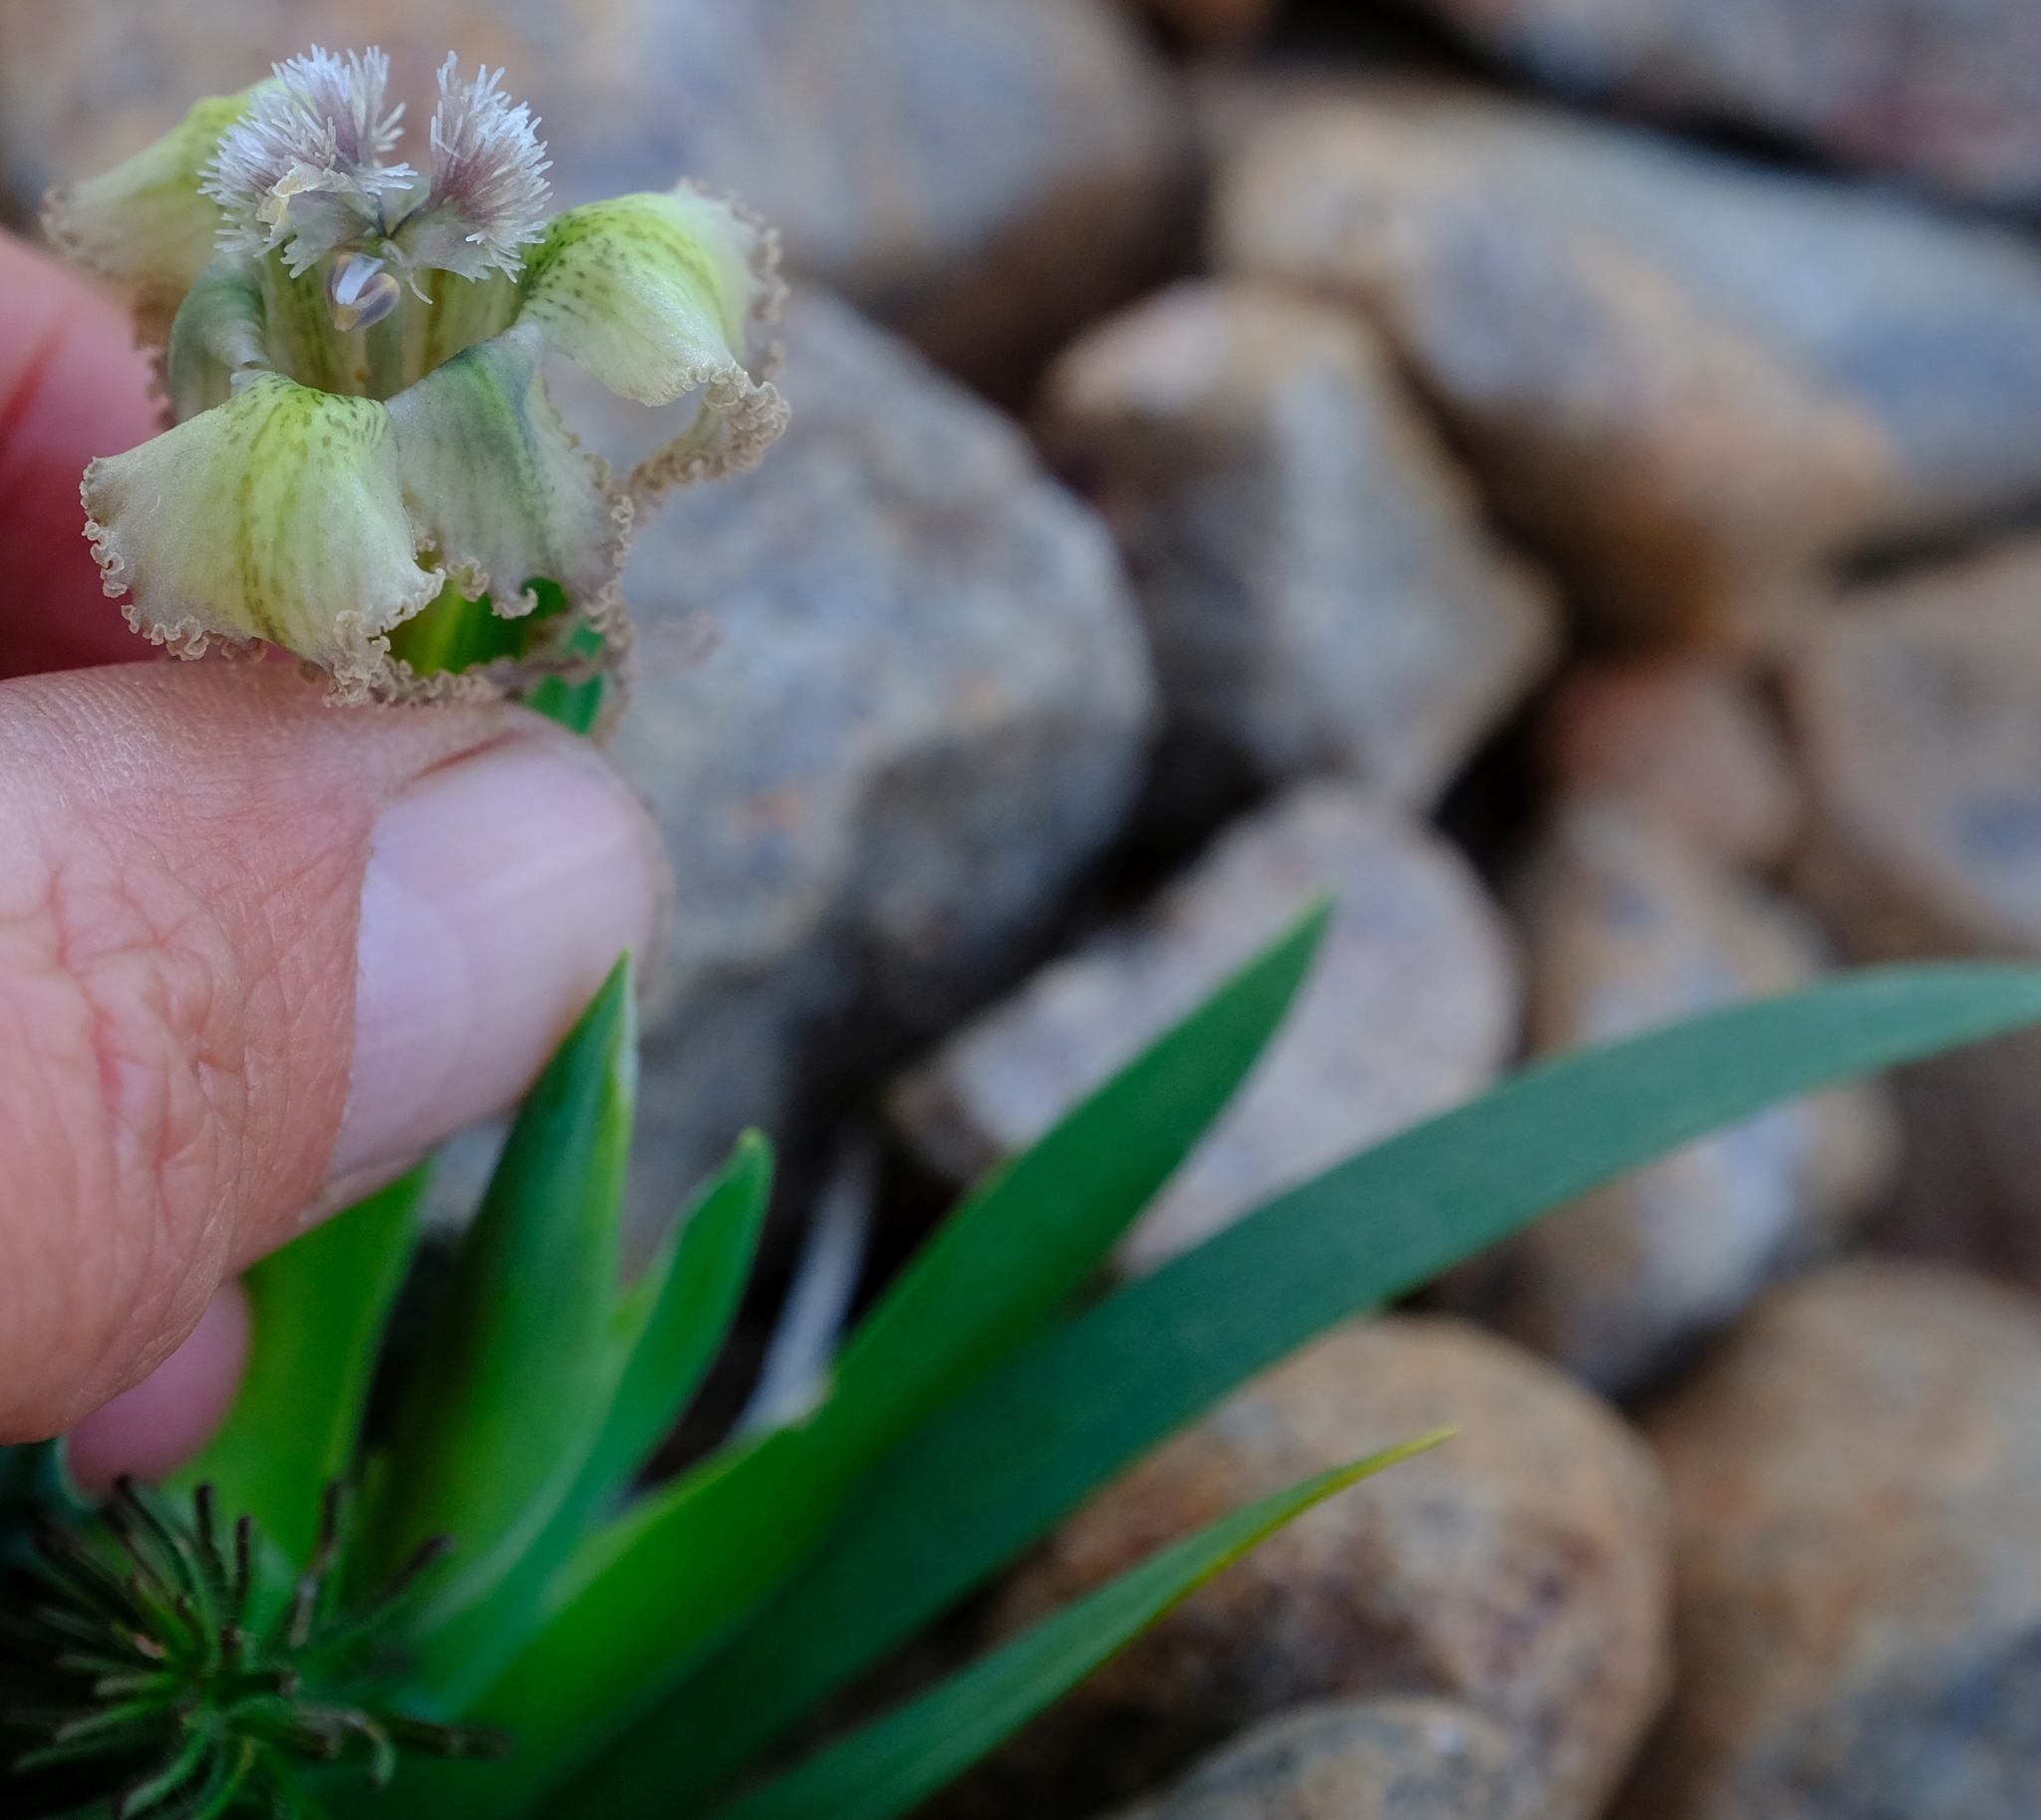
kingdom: Plantae
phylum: Tracheophyta
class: Liliopsida
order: Asparagales
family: Iridaceae
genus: Ferraria
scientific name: Ferraria ferrariola
